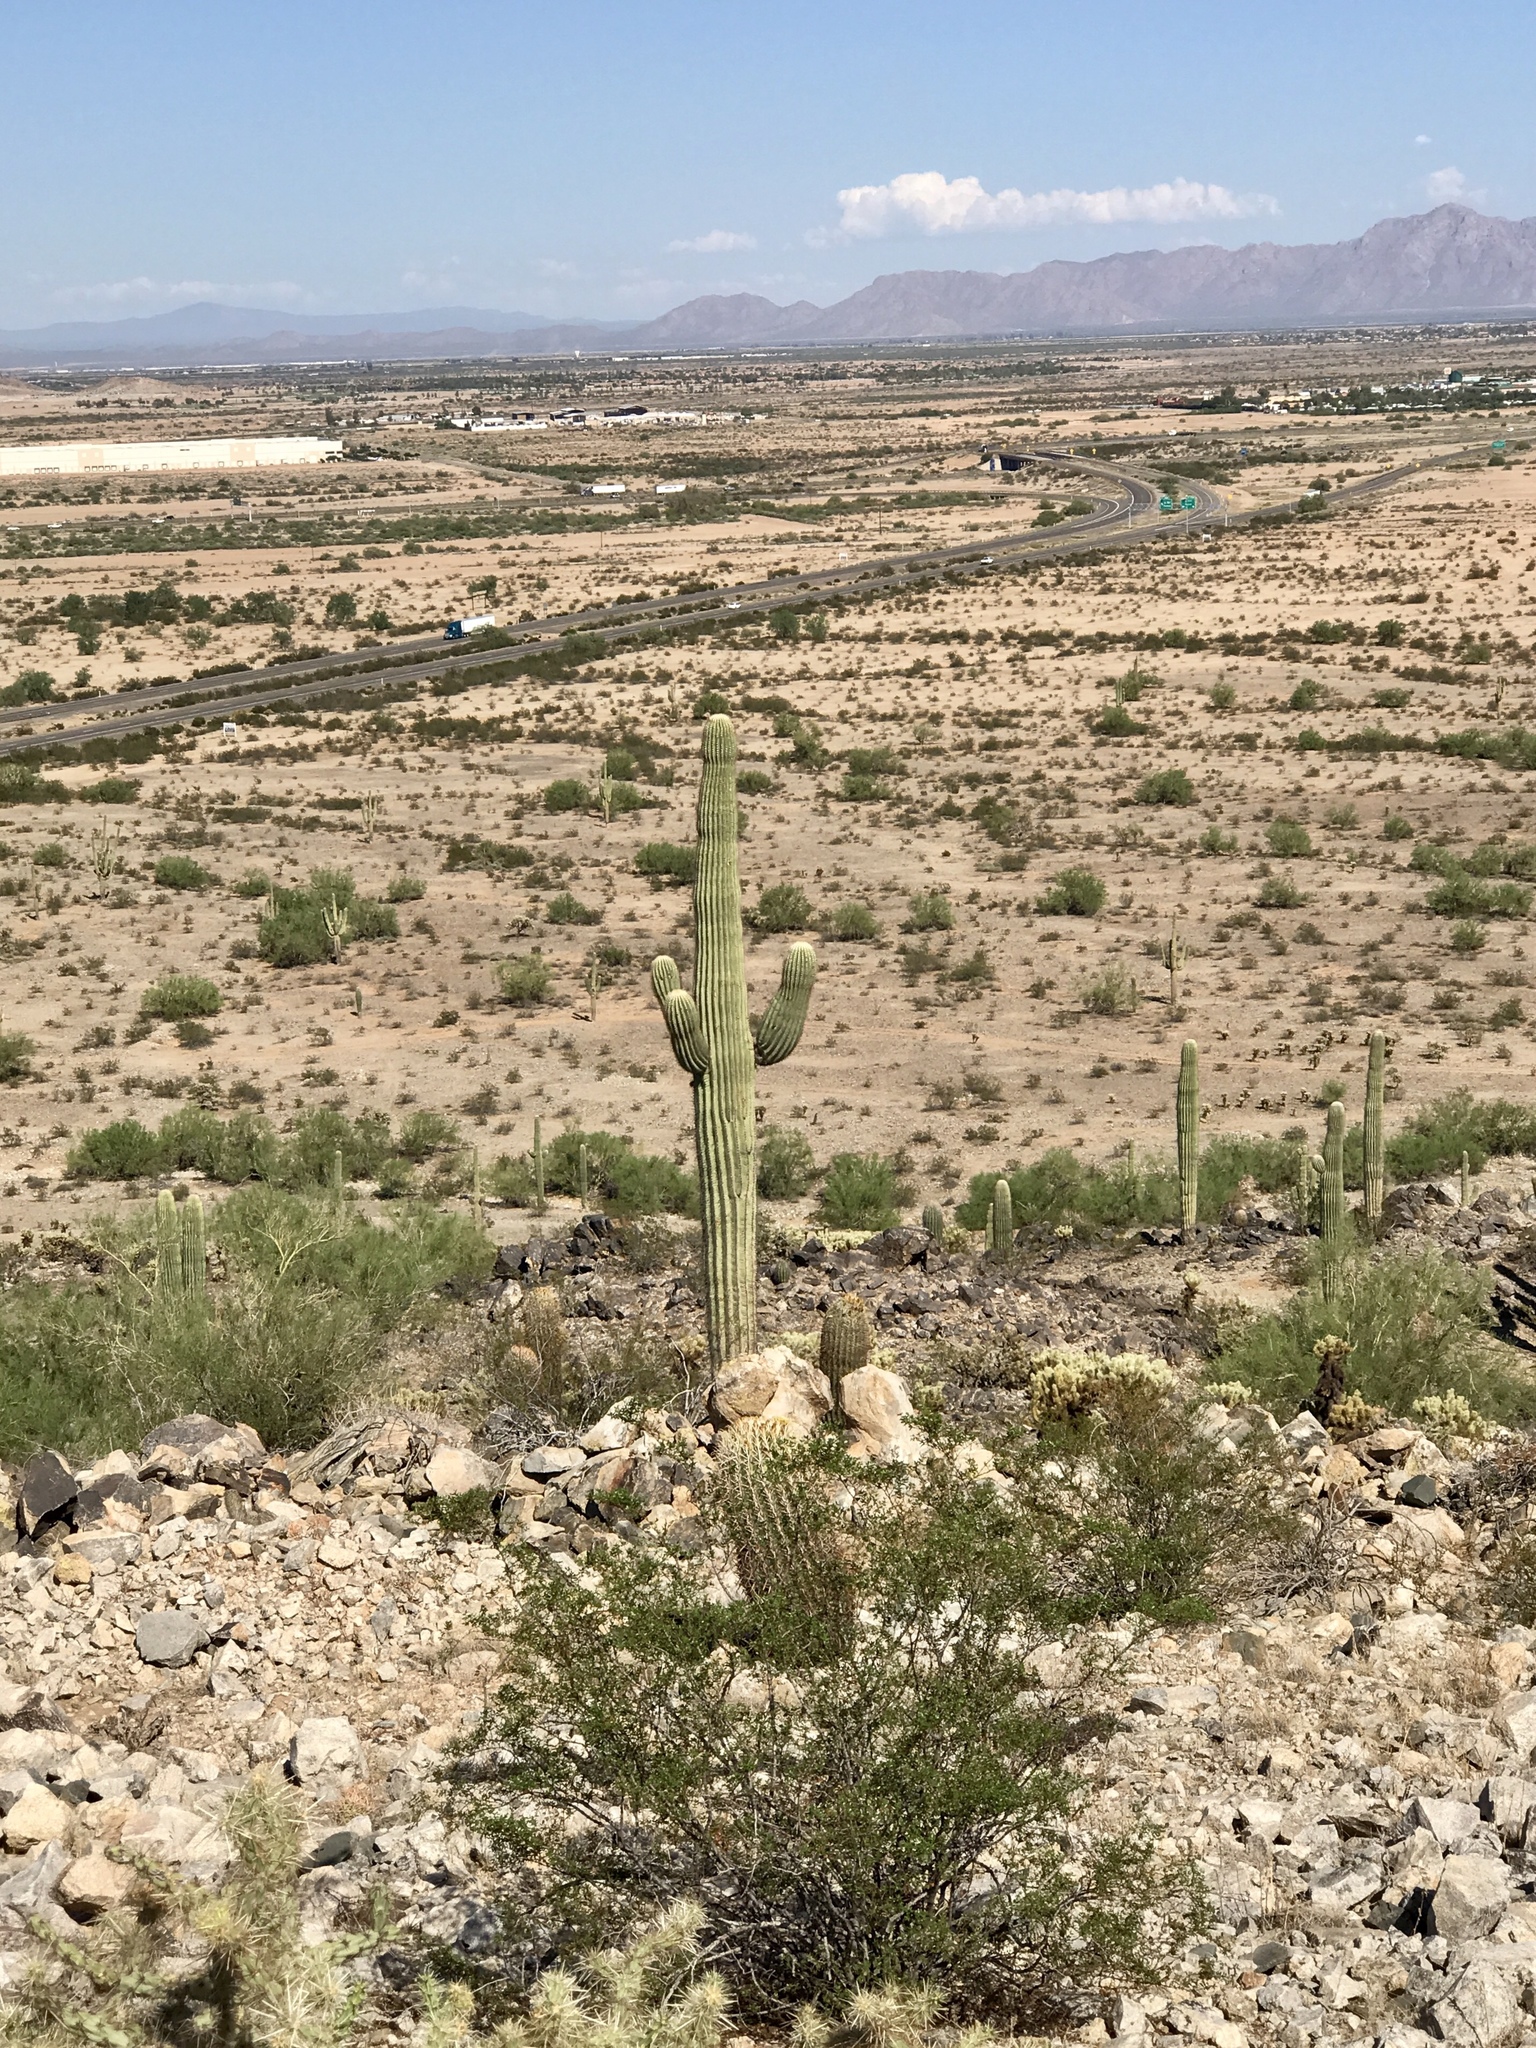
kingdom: Plantae
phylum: Tracheophyta
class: Magnoliopsida
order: Caryophyllales
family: Cactaceae
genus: Carnegiea
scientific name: Carnegiea gigantea
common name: Saguaro
